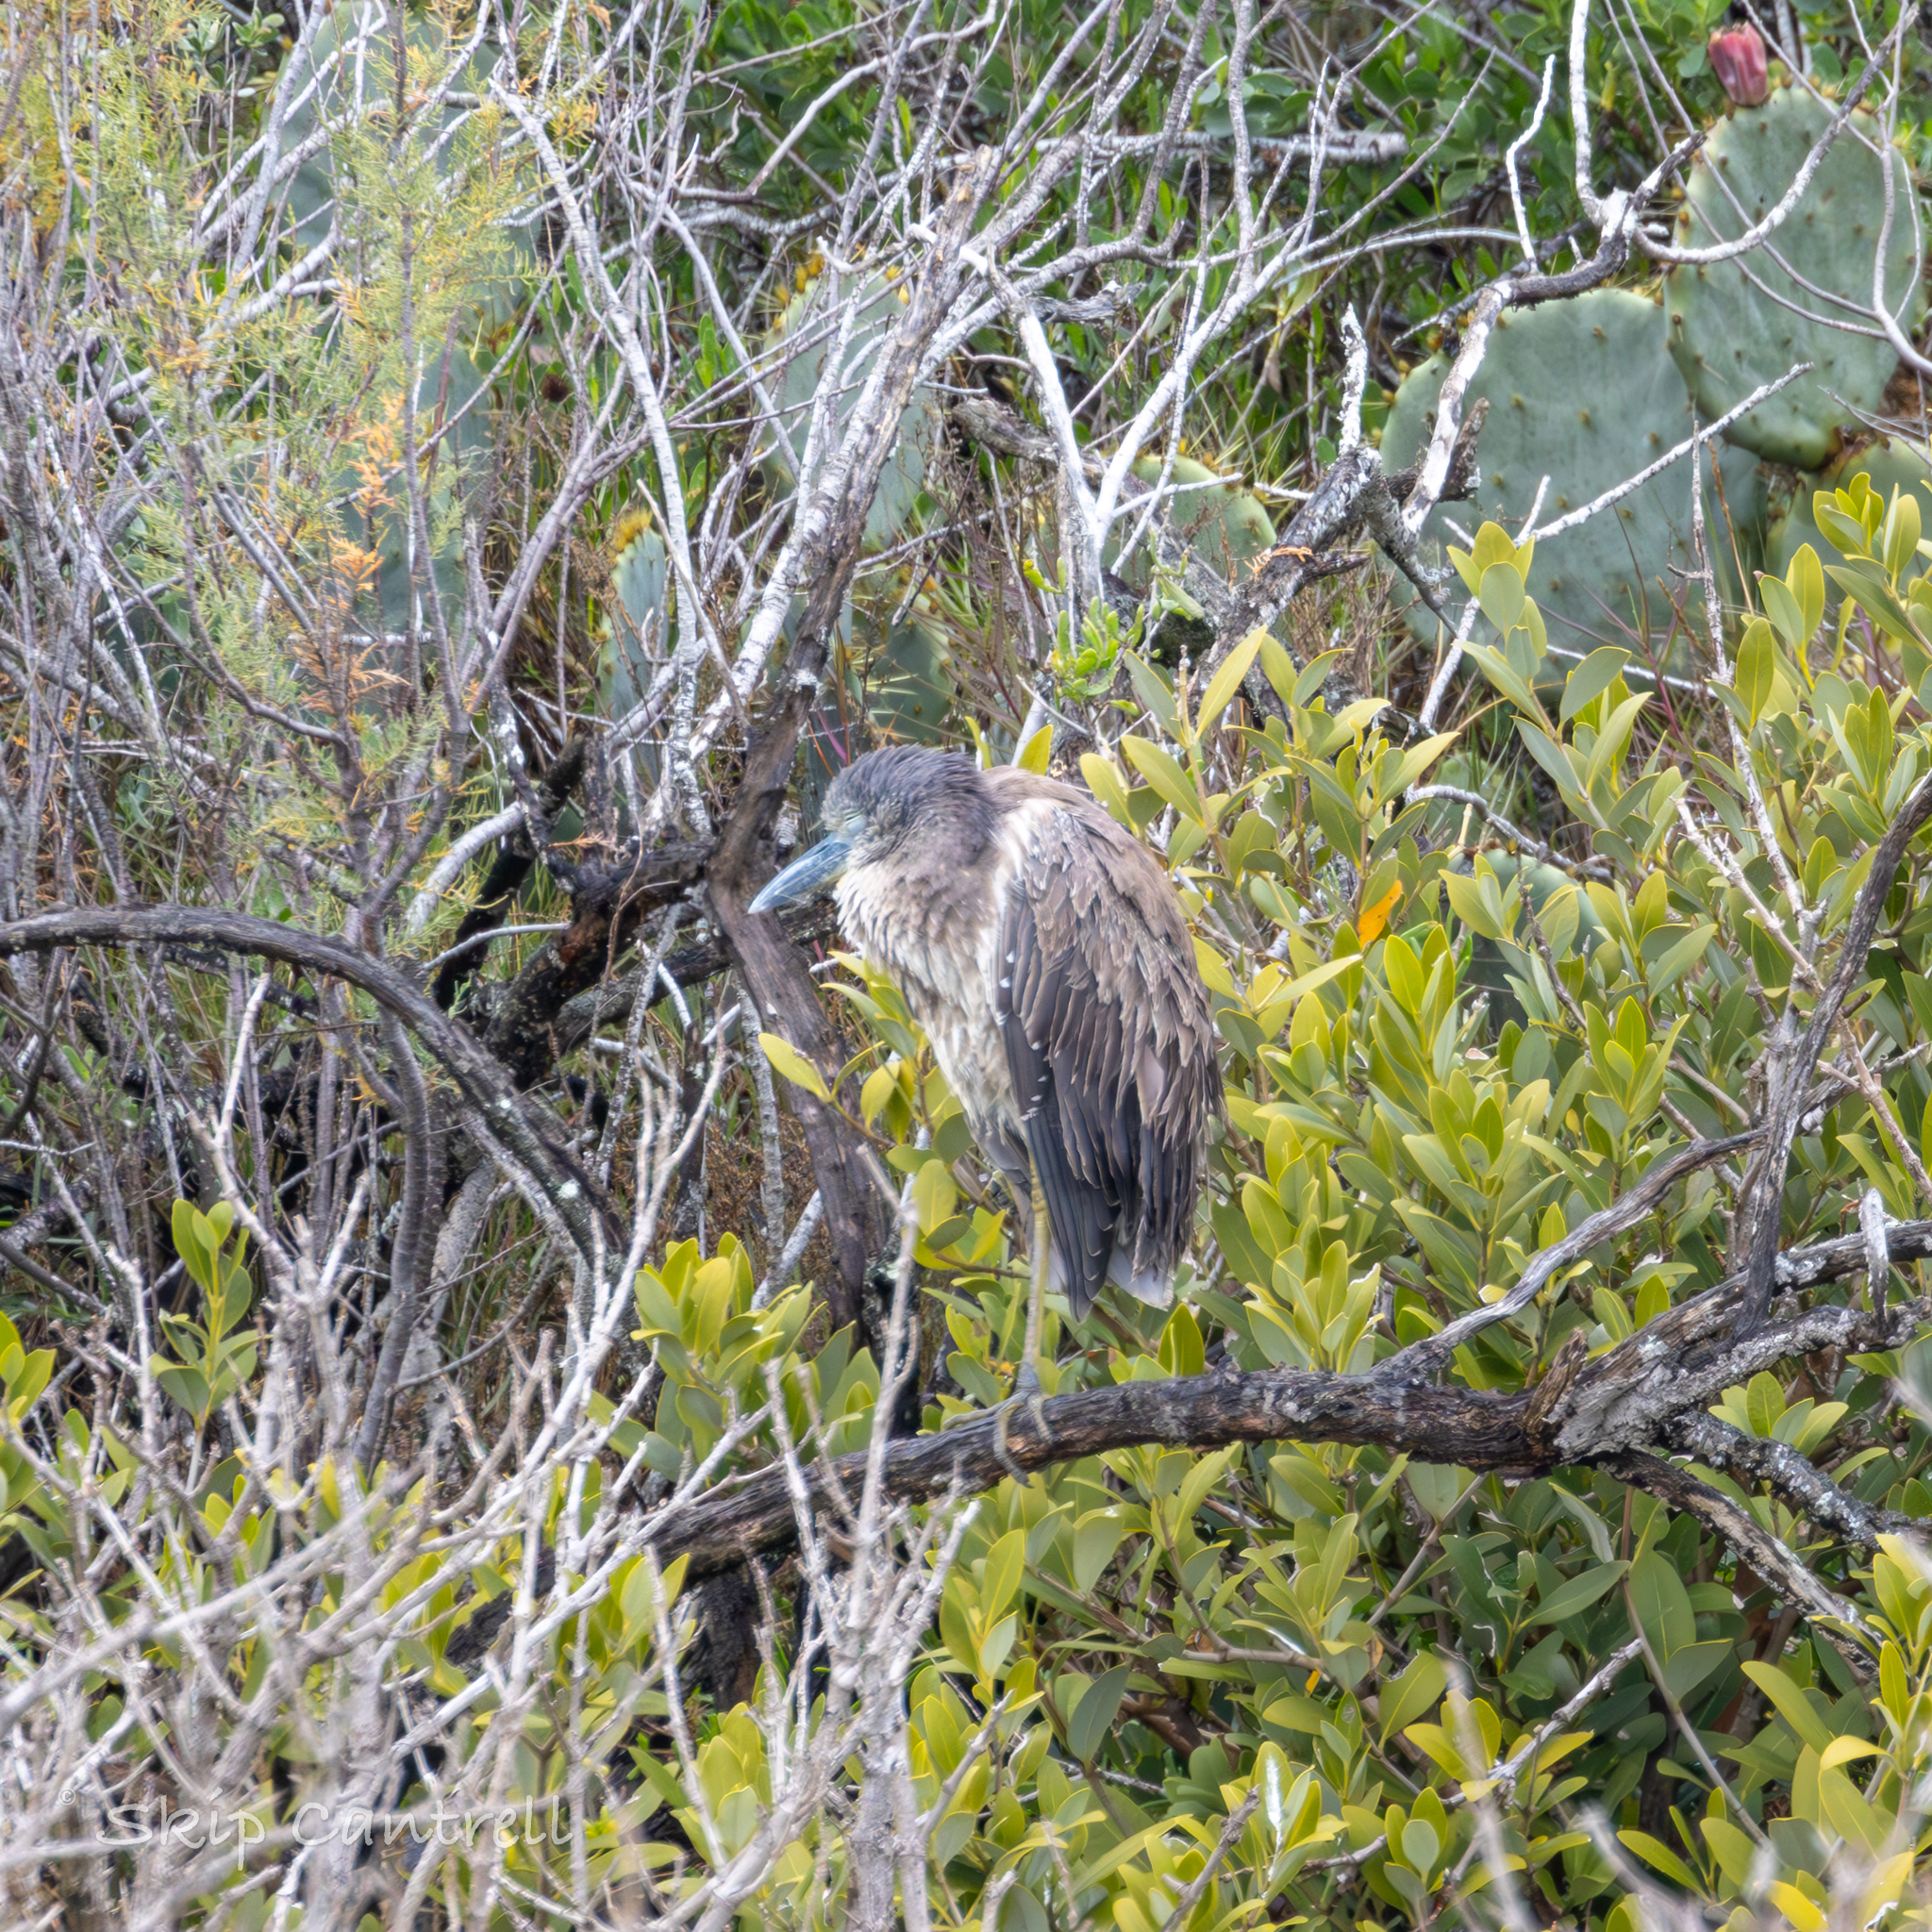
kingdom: Animalia
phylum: Chordata
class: Aves
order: Pelecaniformes
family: Ardeidae
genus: Nyctanassa
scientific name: Nyctanassa violacea
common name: Yellow-crowned night heron
